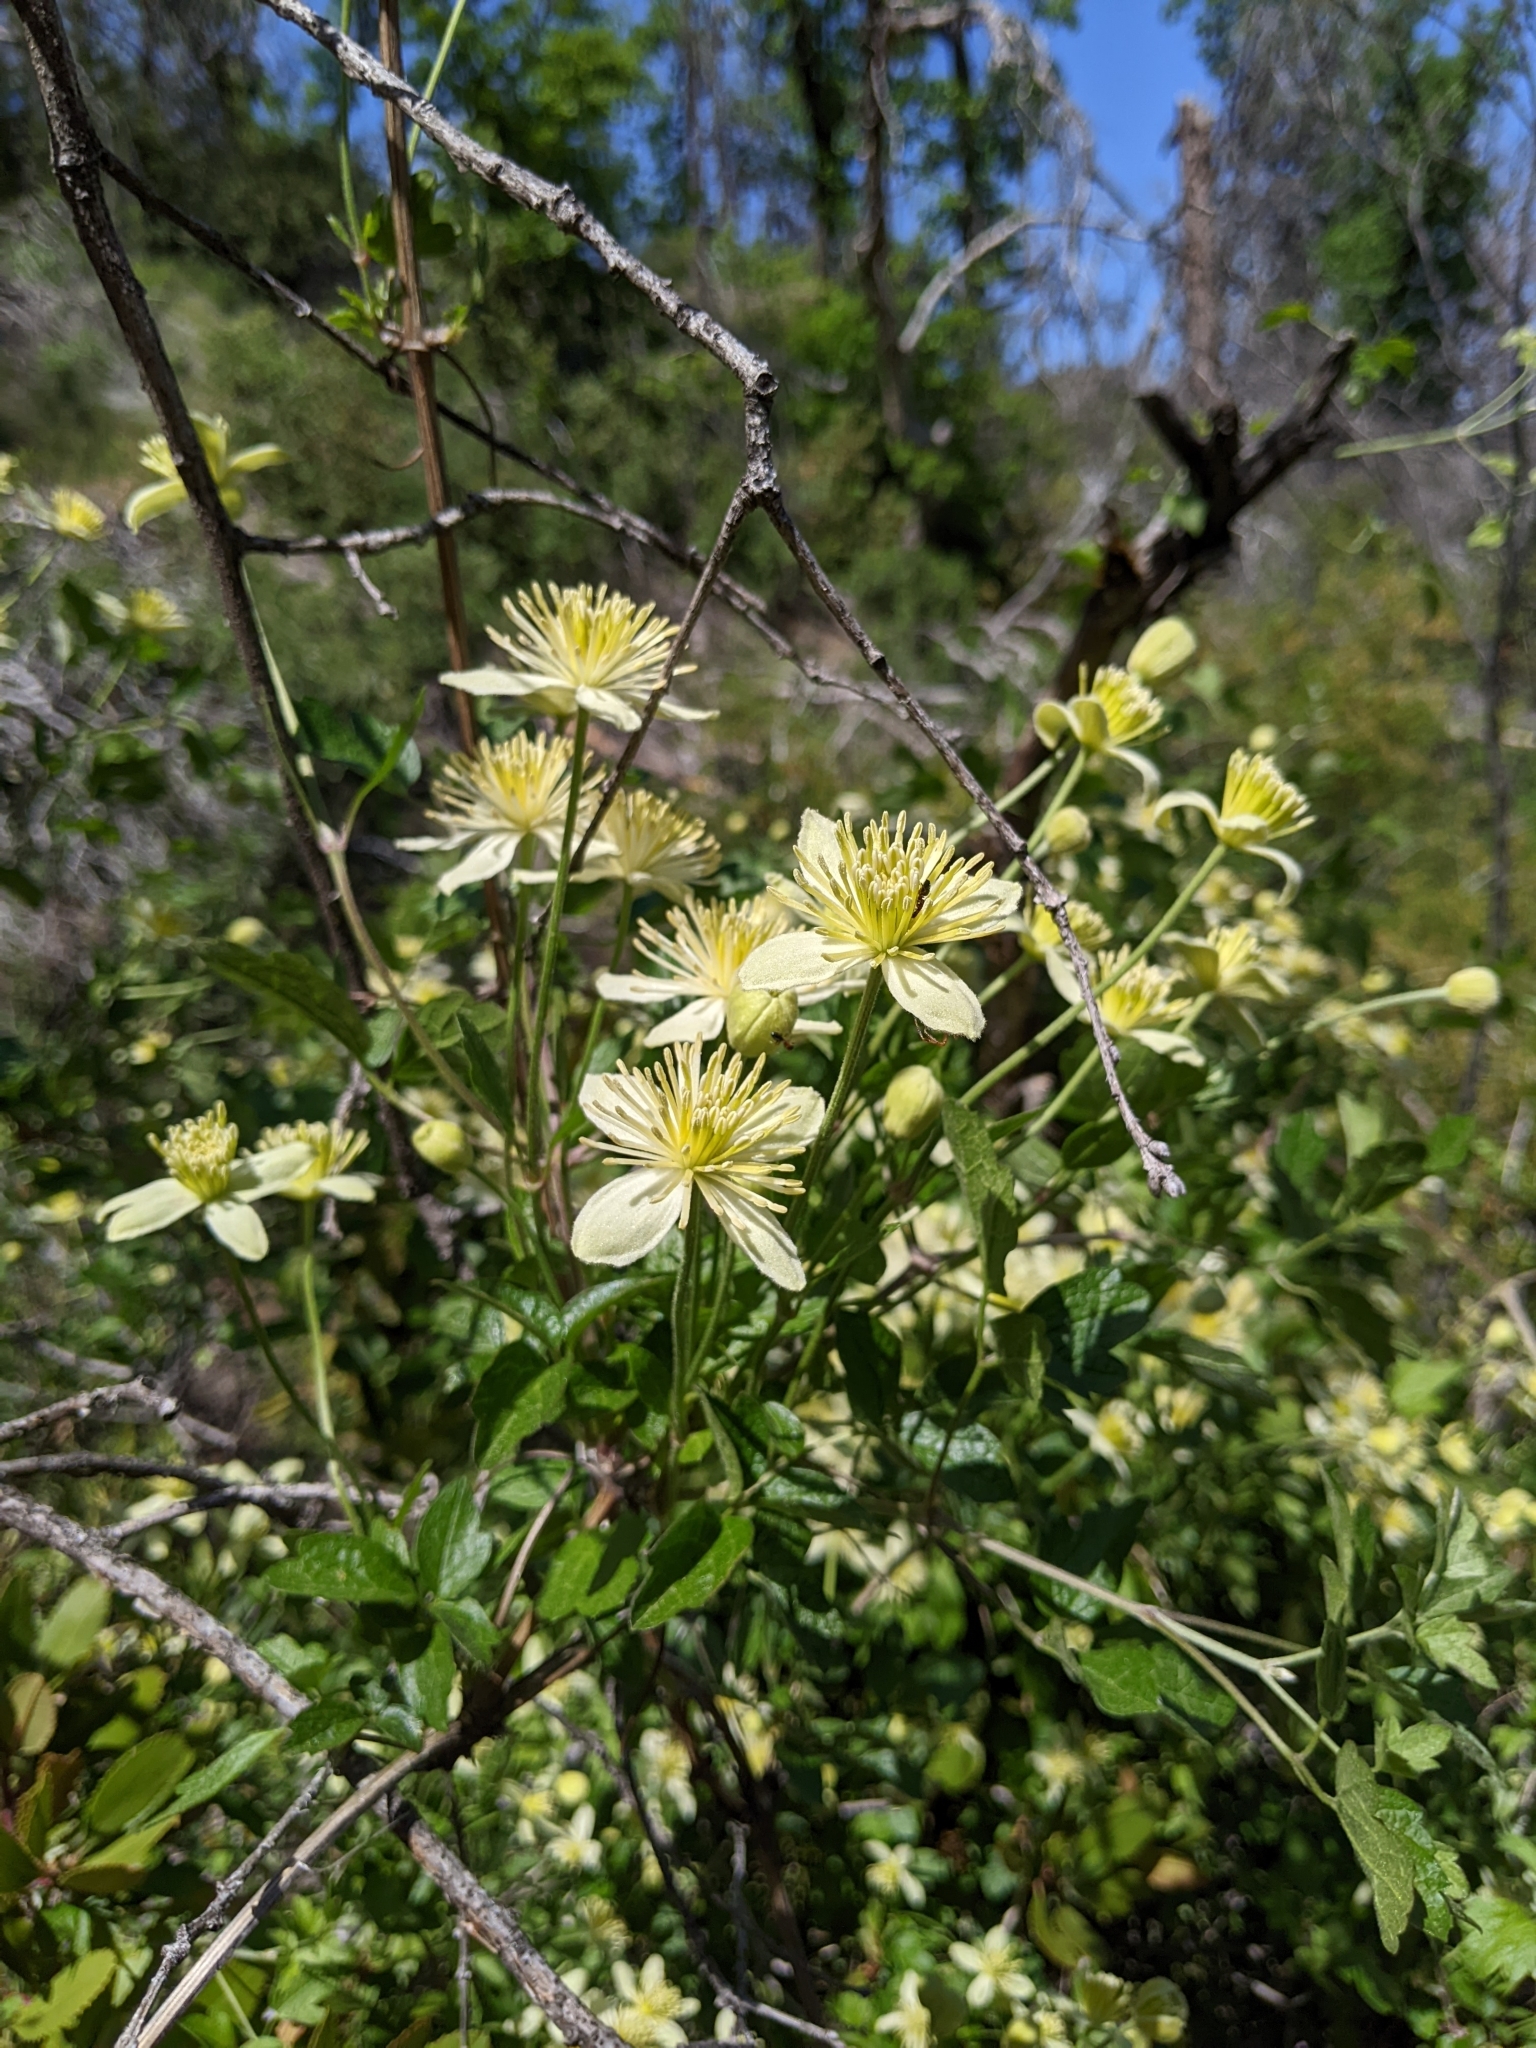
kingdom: Plantae
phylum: Tracheophyta
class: Magnoliopsida
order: Ranunculales
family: Ranunculaceae
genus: Clematis
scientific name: Clematis lasiantha
